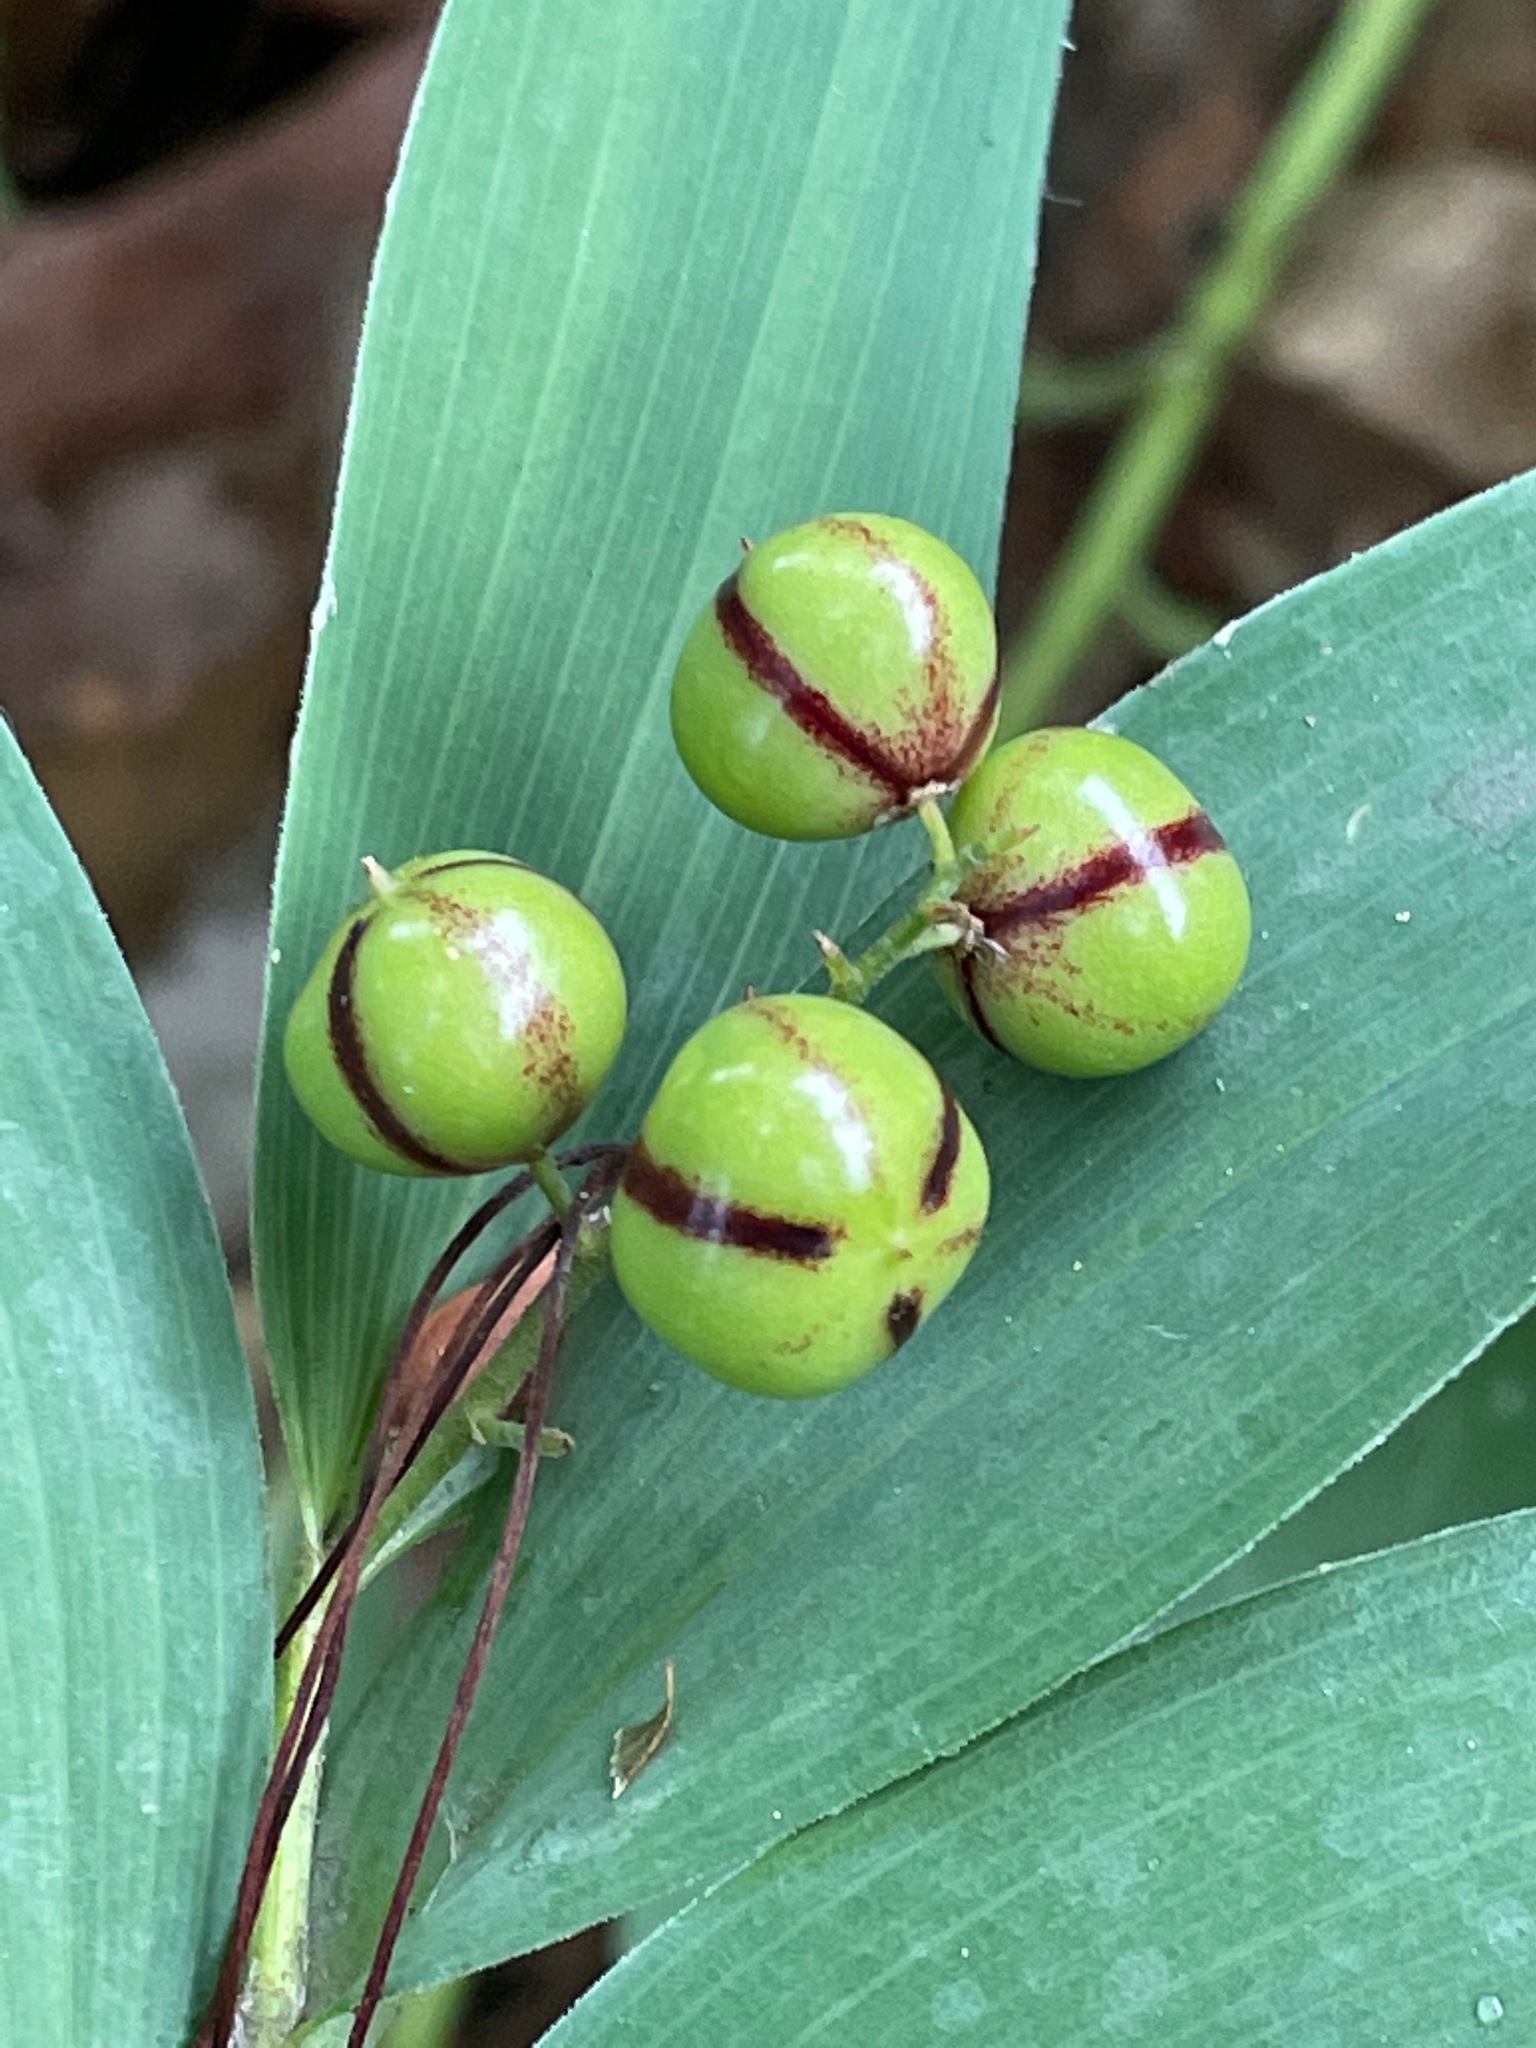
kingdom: Plantae
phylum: Tracheophyta
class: Liliopsida
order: Asparagales
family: Asparagaceae
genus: Maianthemum
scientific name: Maianthemum stellatum
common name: Little false solomon's seal
